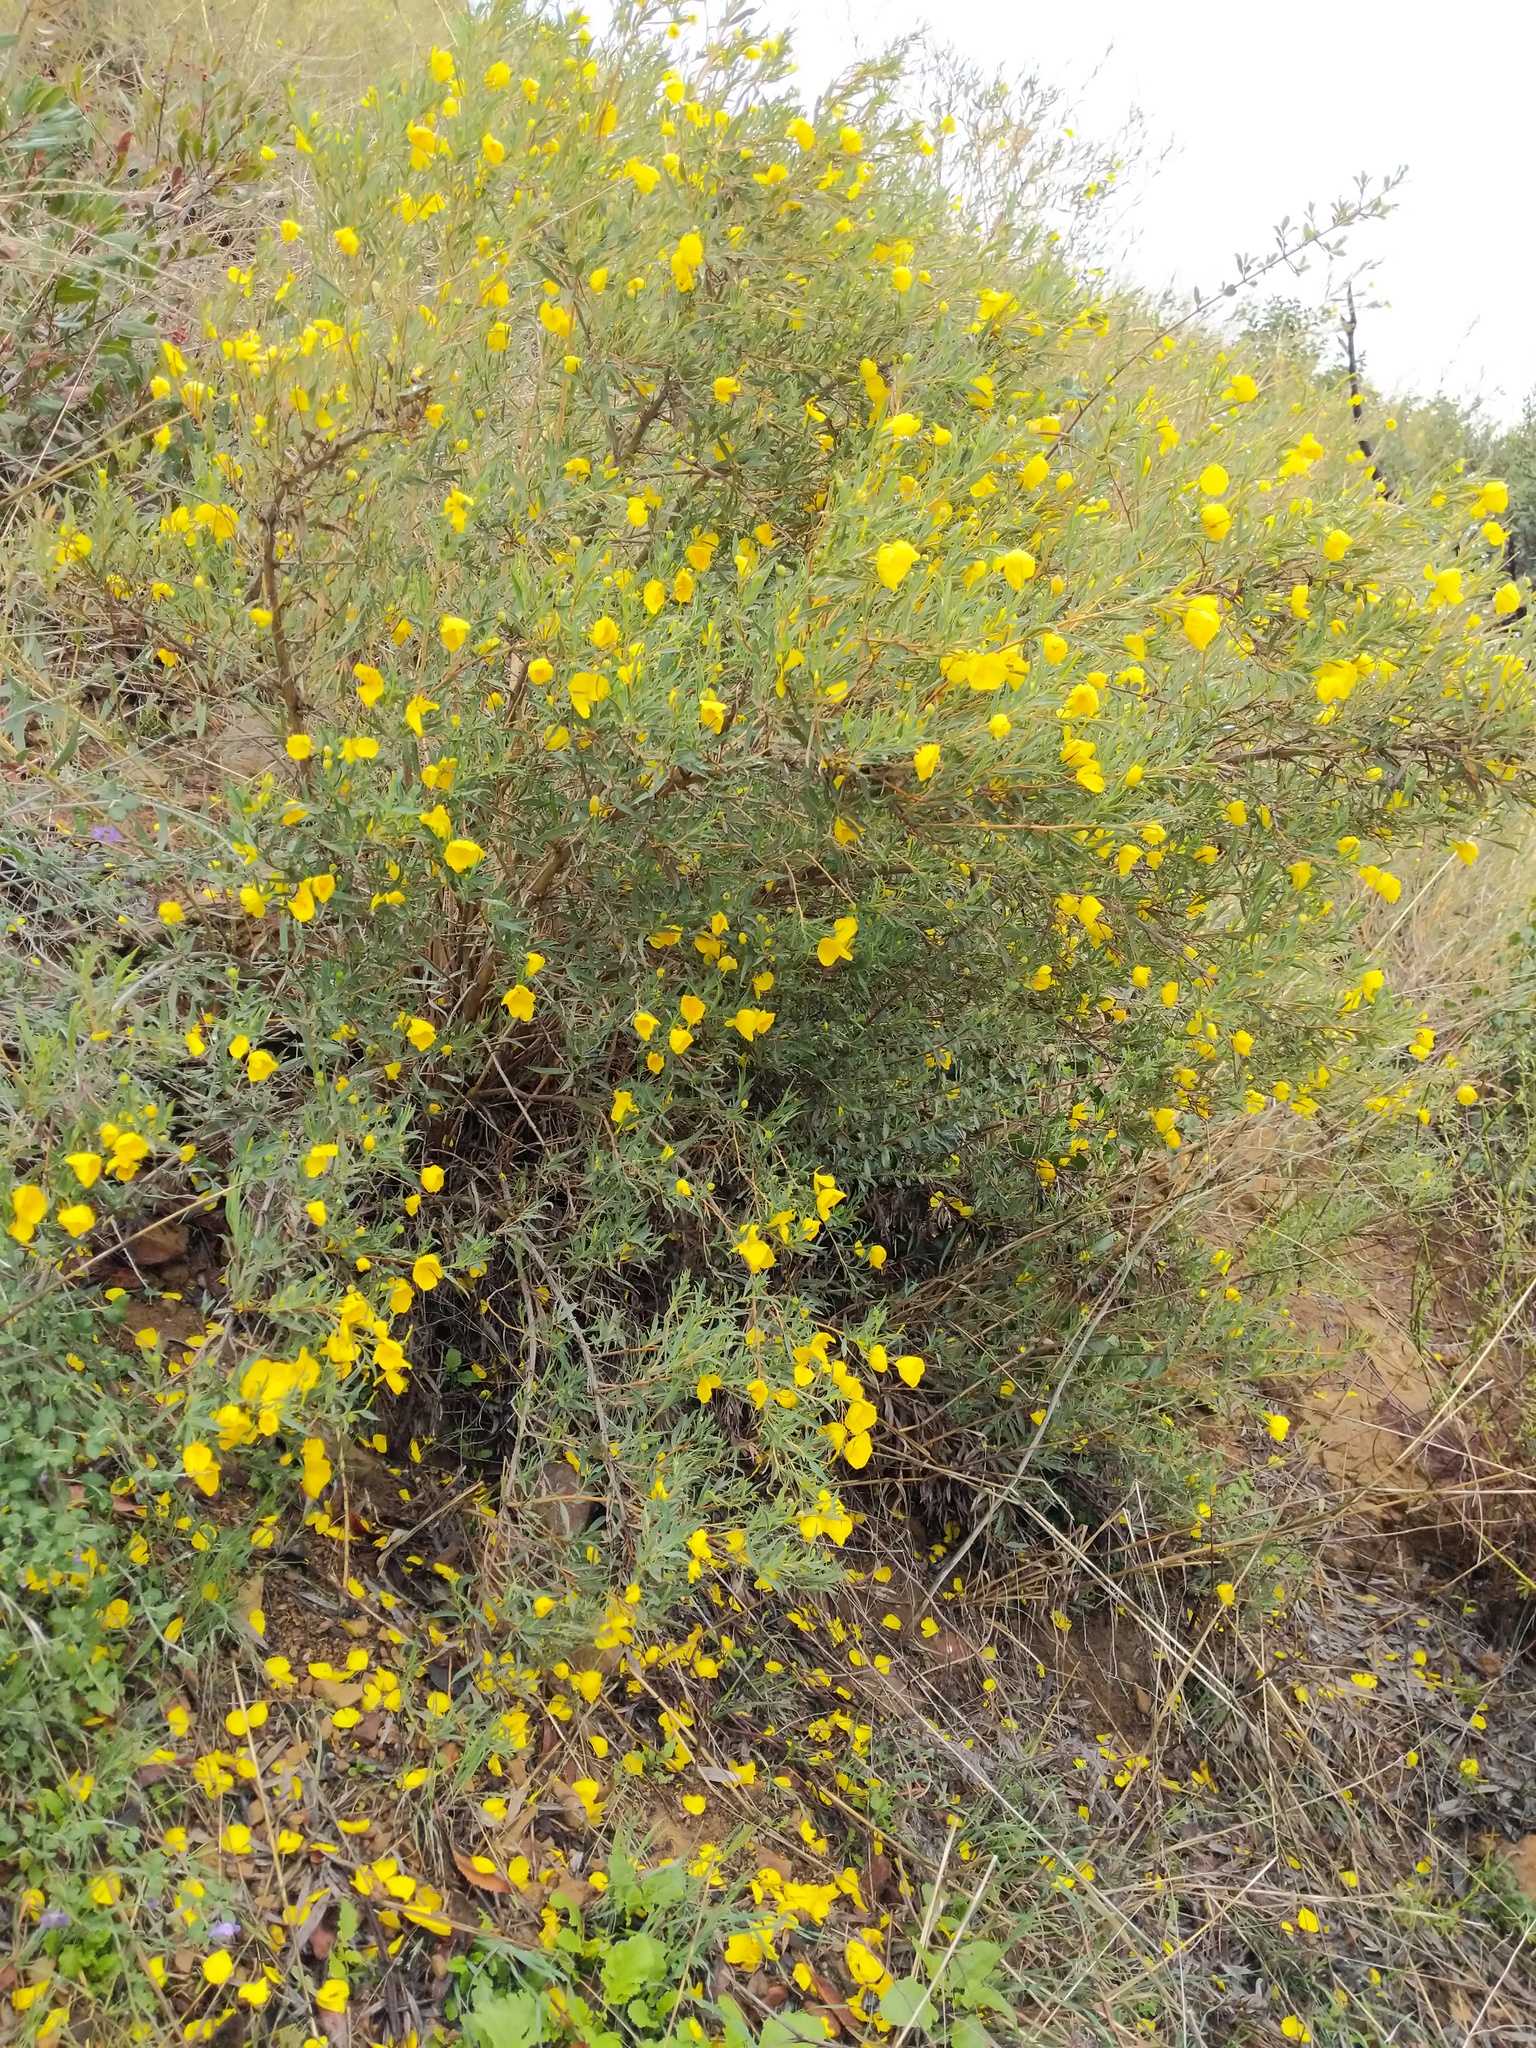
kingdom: Plantae
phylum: Tracheophyta
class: Magnoliopsida
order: Ranunculales
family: Papaveraceae
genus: Dendromecon
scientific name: Dendromecon rigida
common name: Tree poppy
